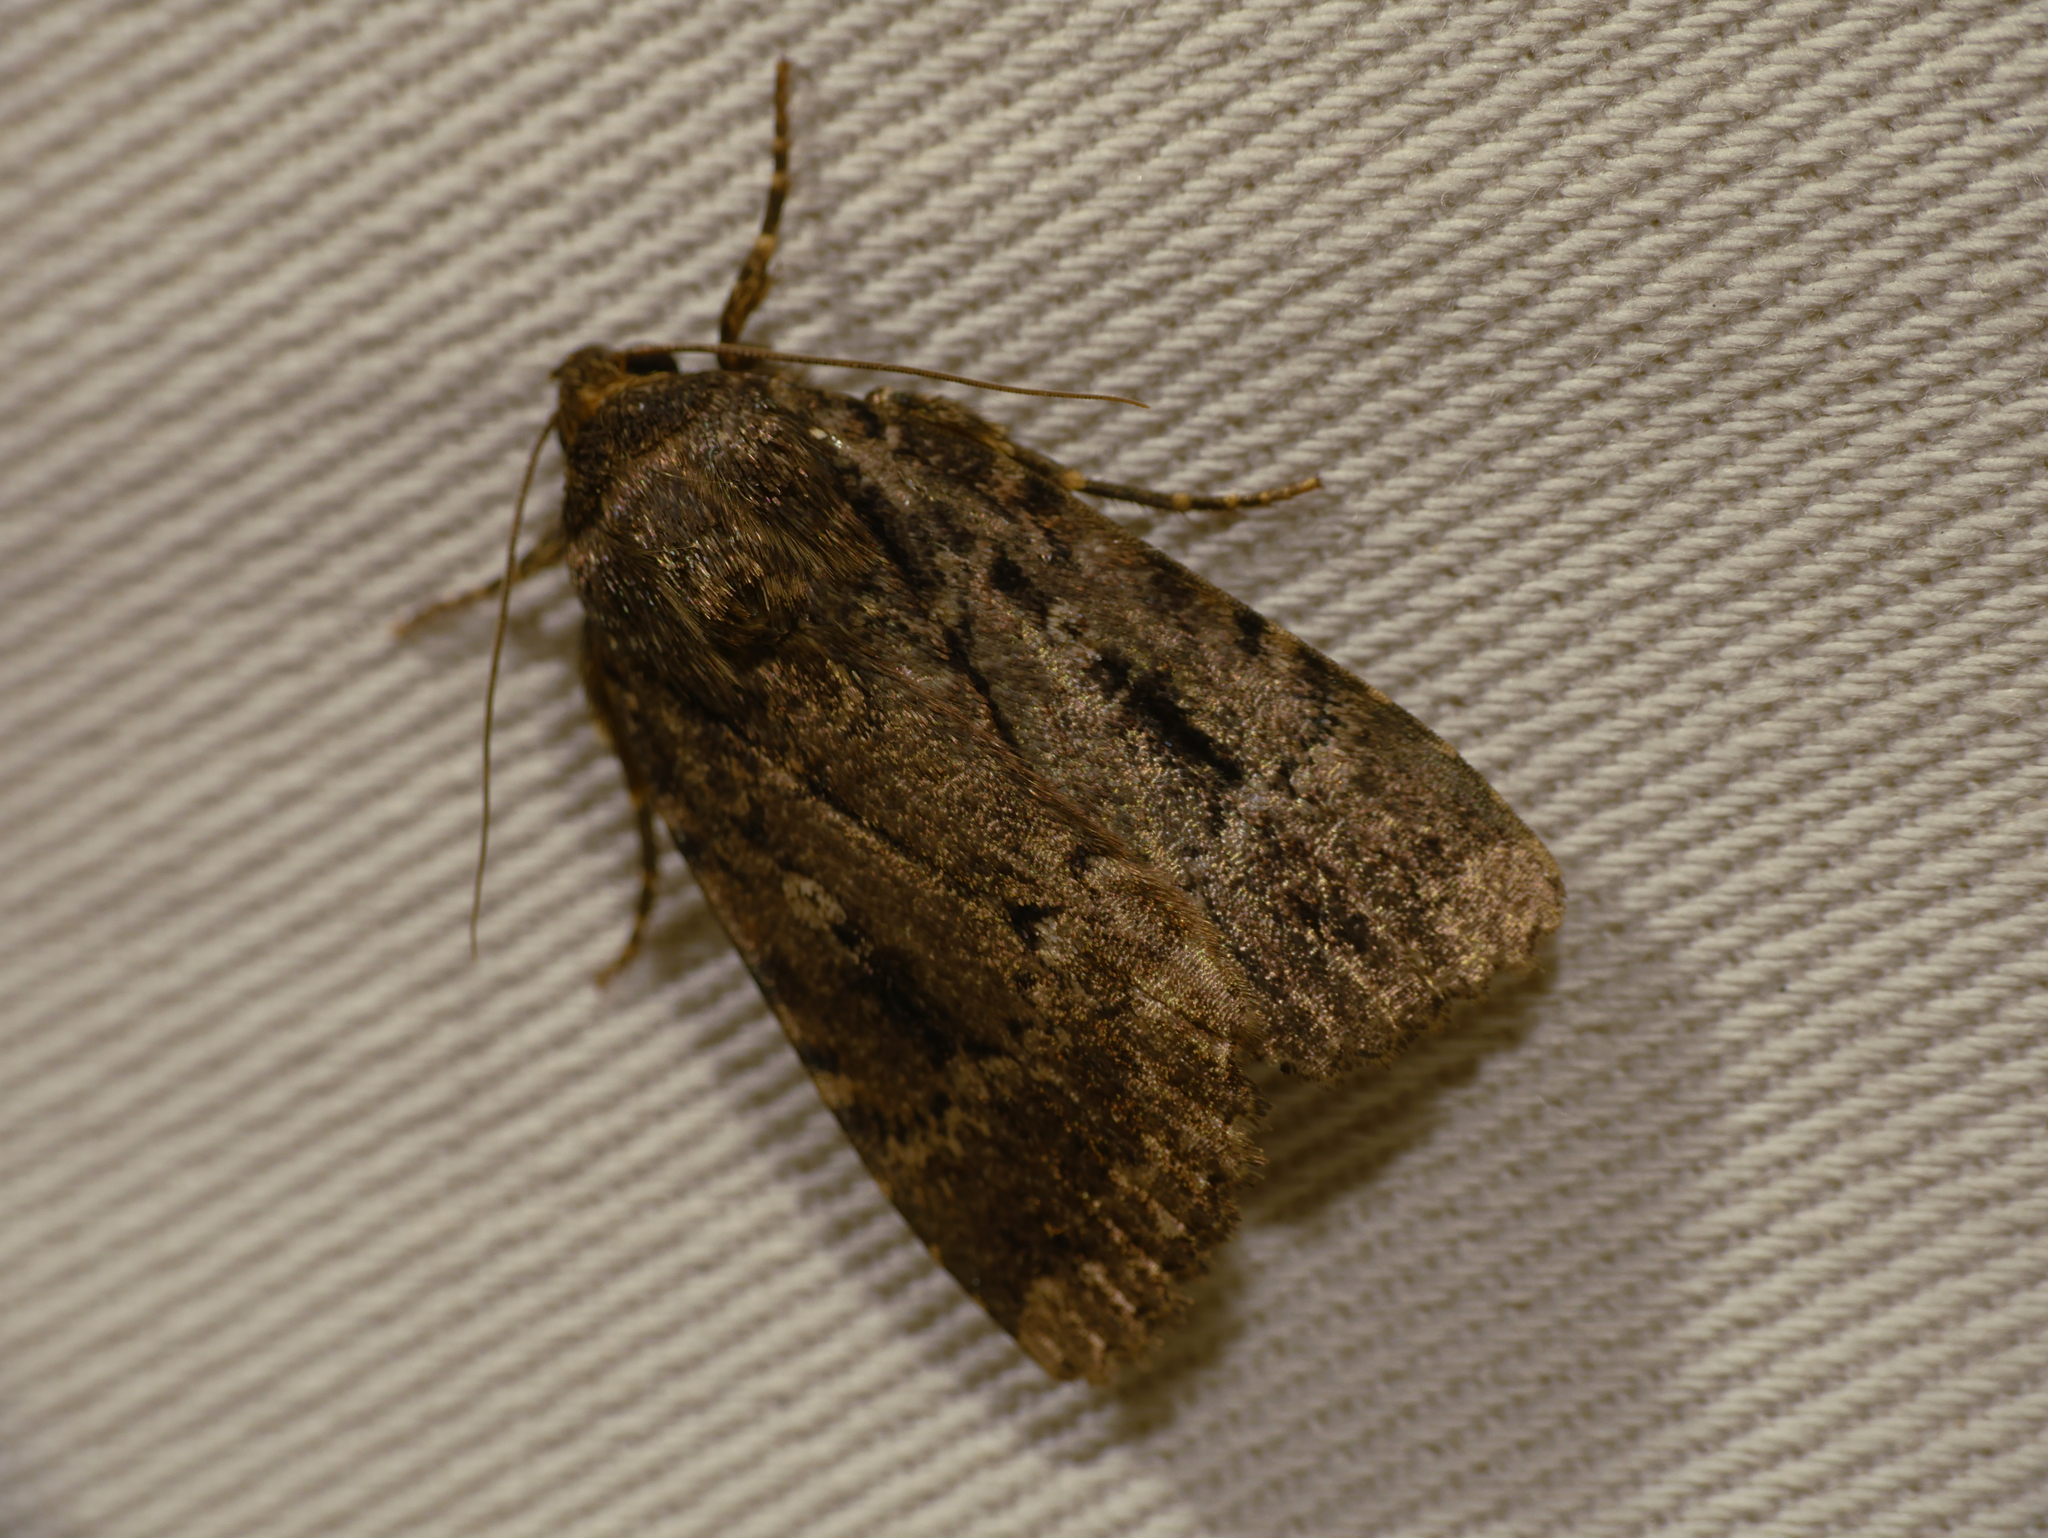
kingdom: Animalia
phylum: Arthropoda
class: Insecta
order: Lepidoptera
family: Noctuidae
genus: Amphipyra
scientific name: Amphipyra pyramidea
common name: Copper underwing
